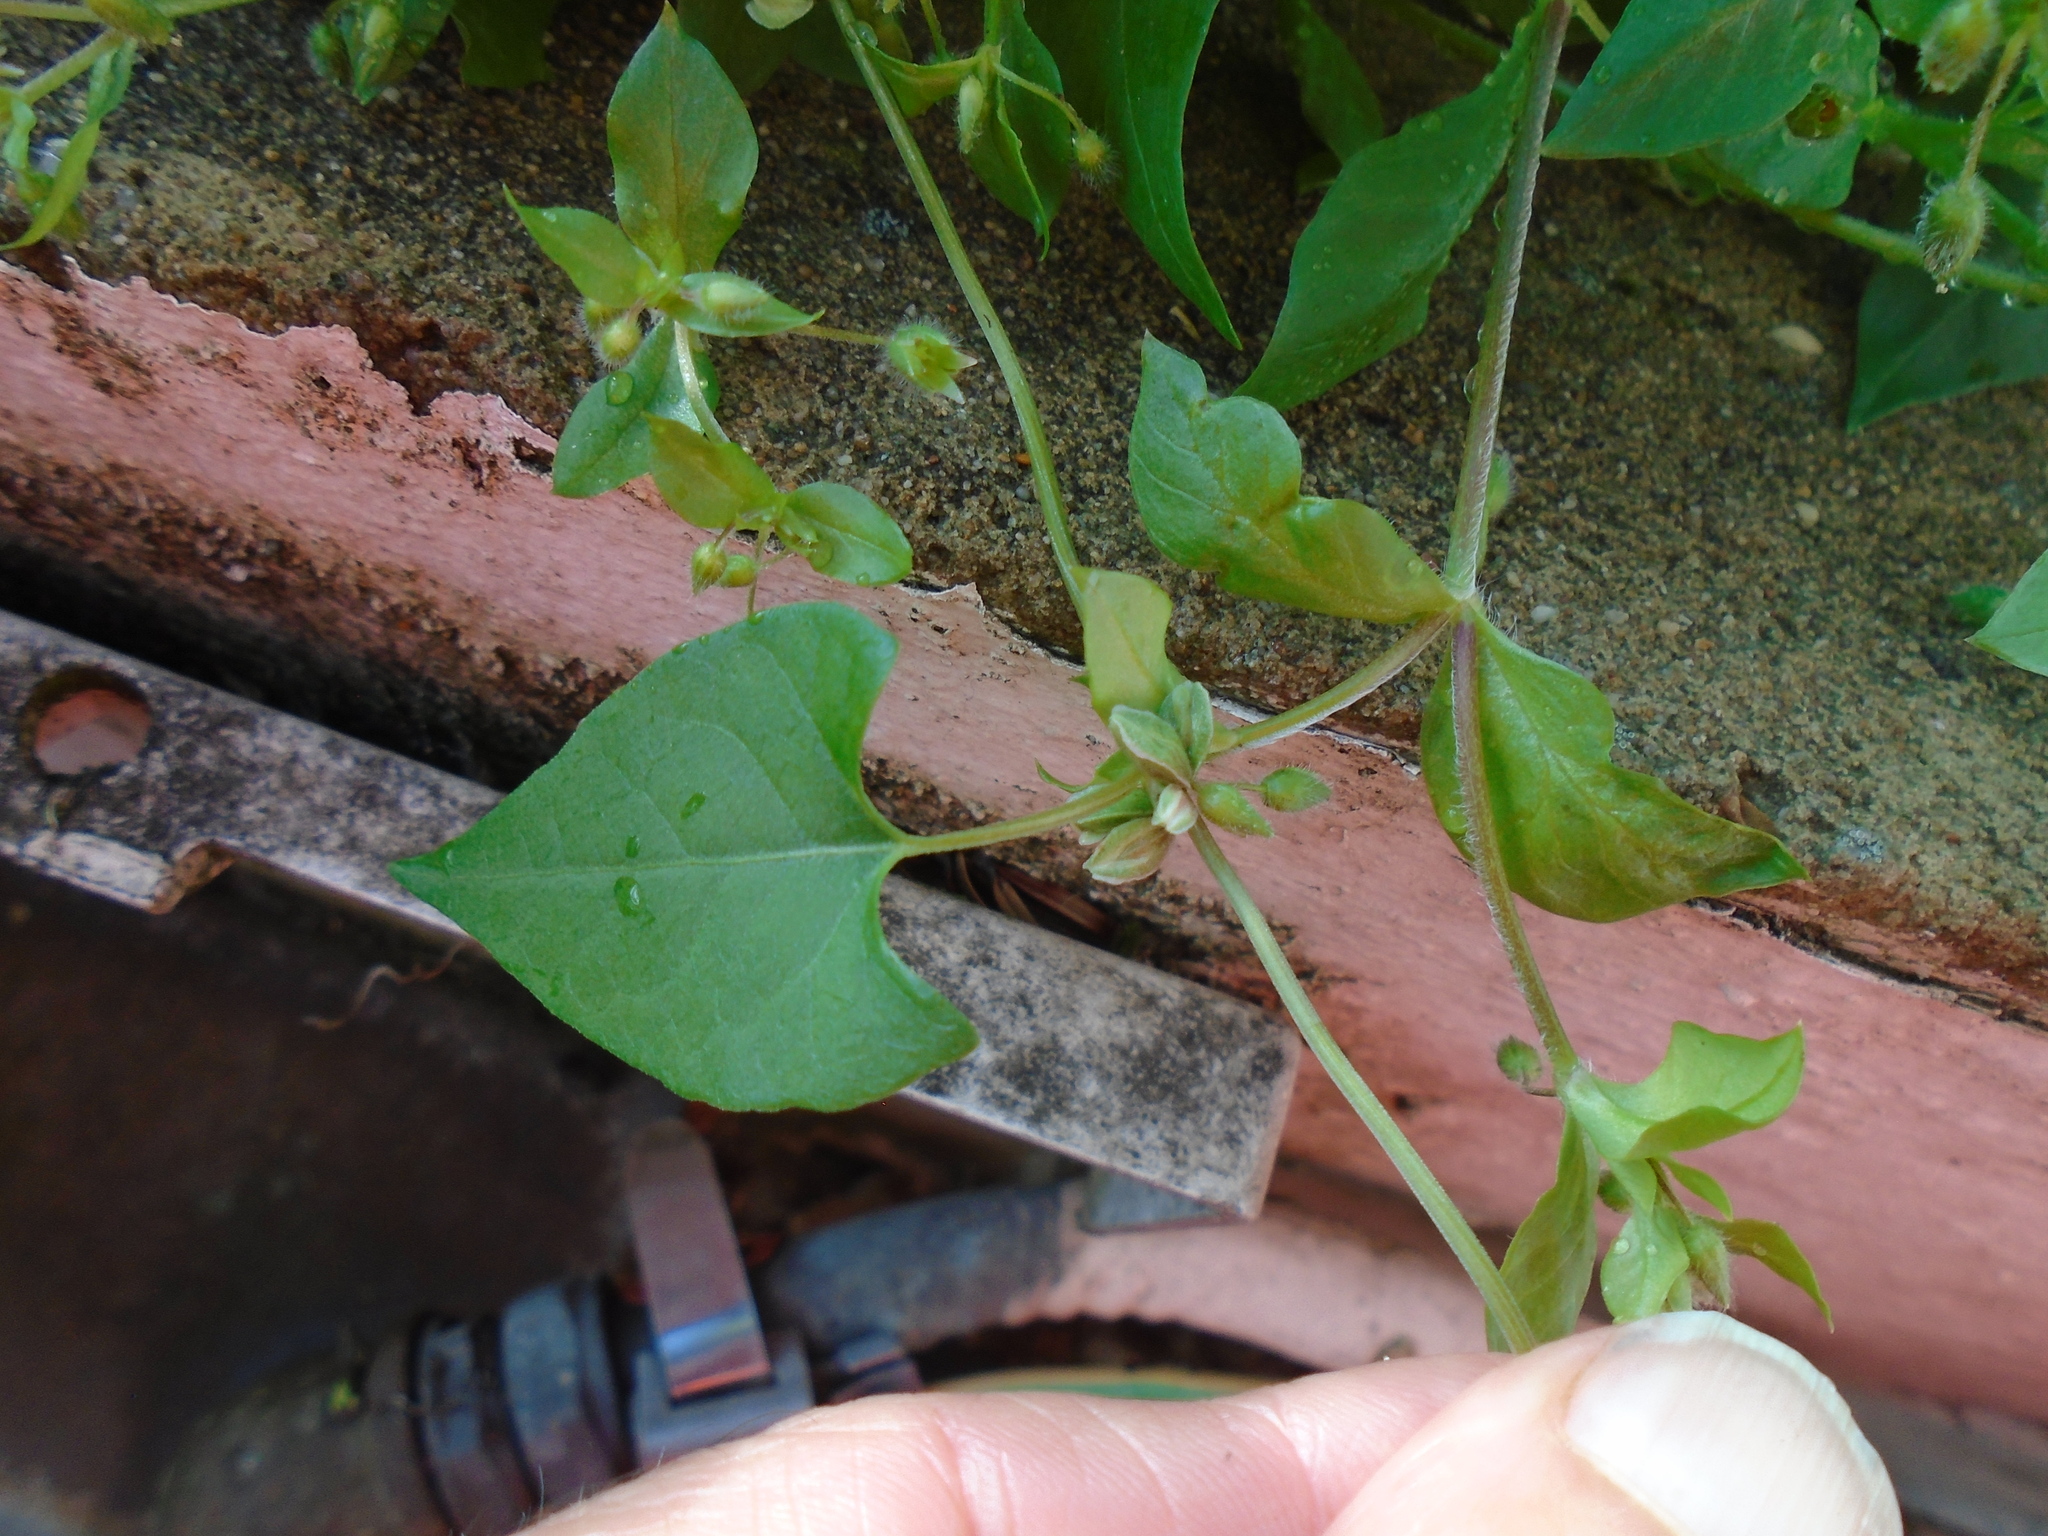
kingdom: Plantae
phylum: Tracheophyta
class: Magnoliopsida
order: Caryophyllales
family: Polygonaceae
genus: Fallopia
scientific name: Fallopia convolvulus
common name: Black bindweed
